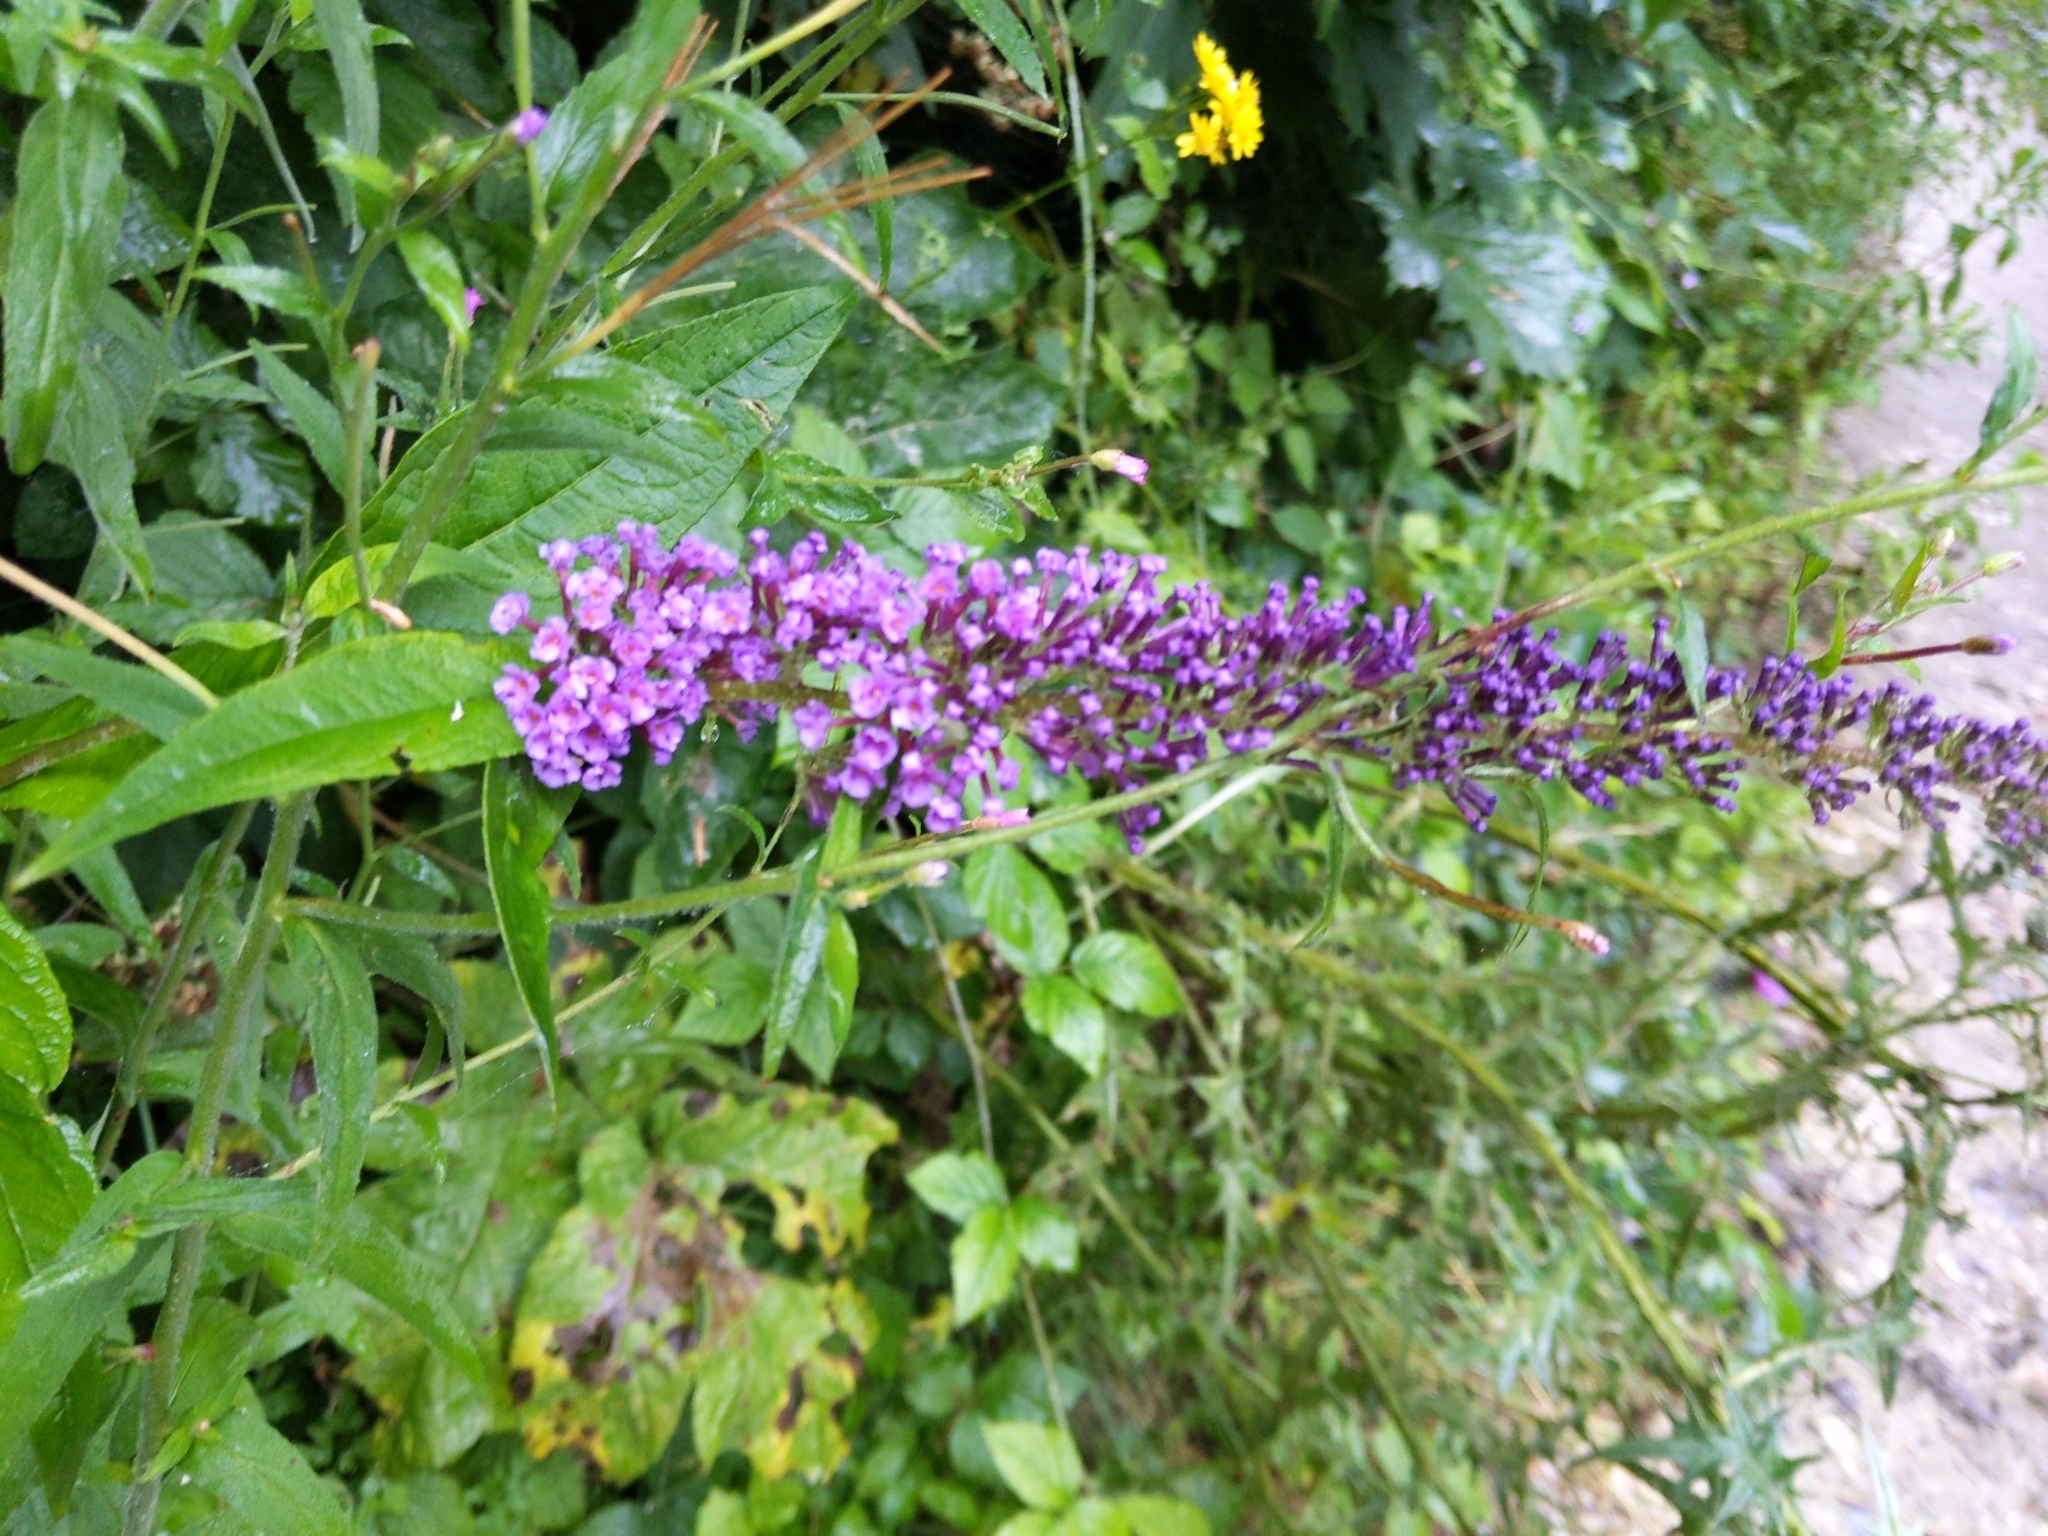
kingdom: Plantae
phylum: Tracheophyta
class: Magnoliopsida
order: Lamiales
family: Scrophulariaceae
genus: Buddleja
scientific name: Buddleja davidii
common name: Butterfly-bush
